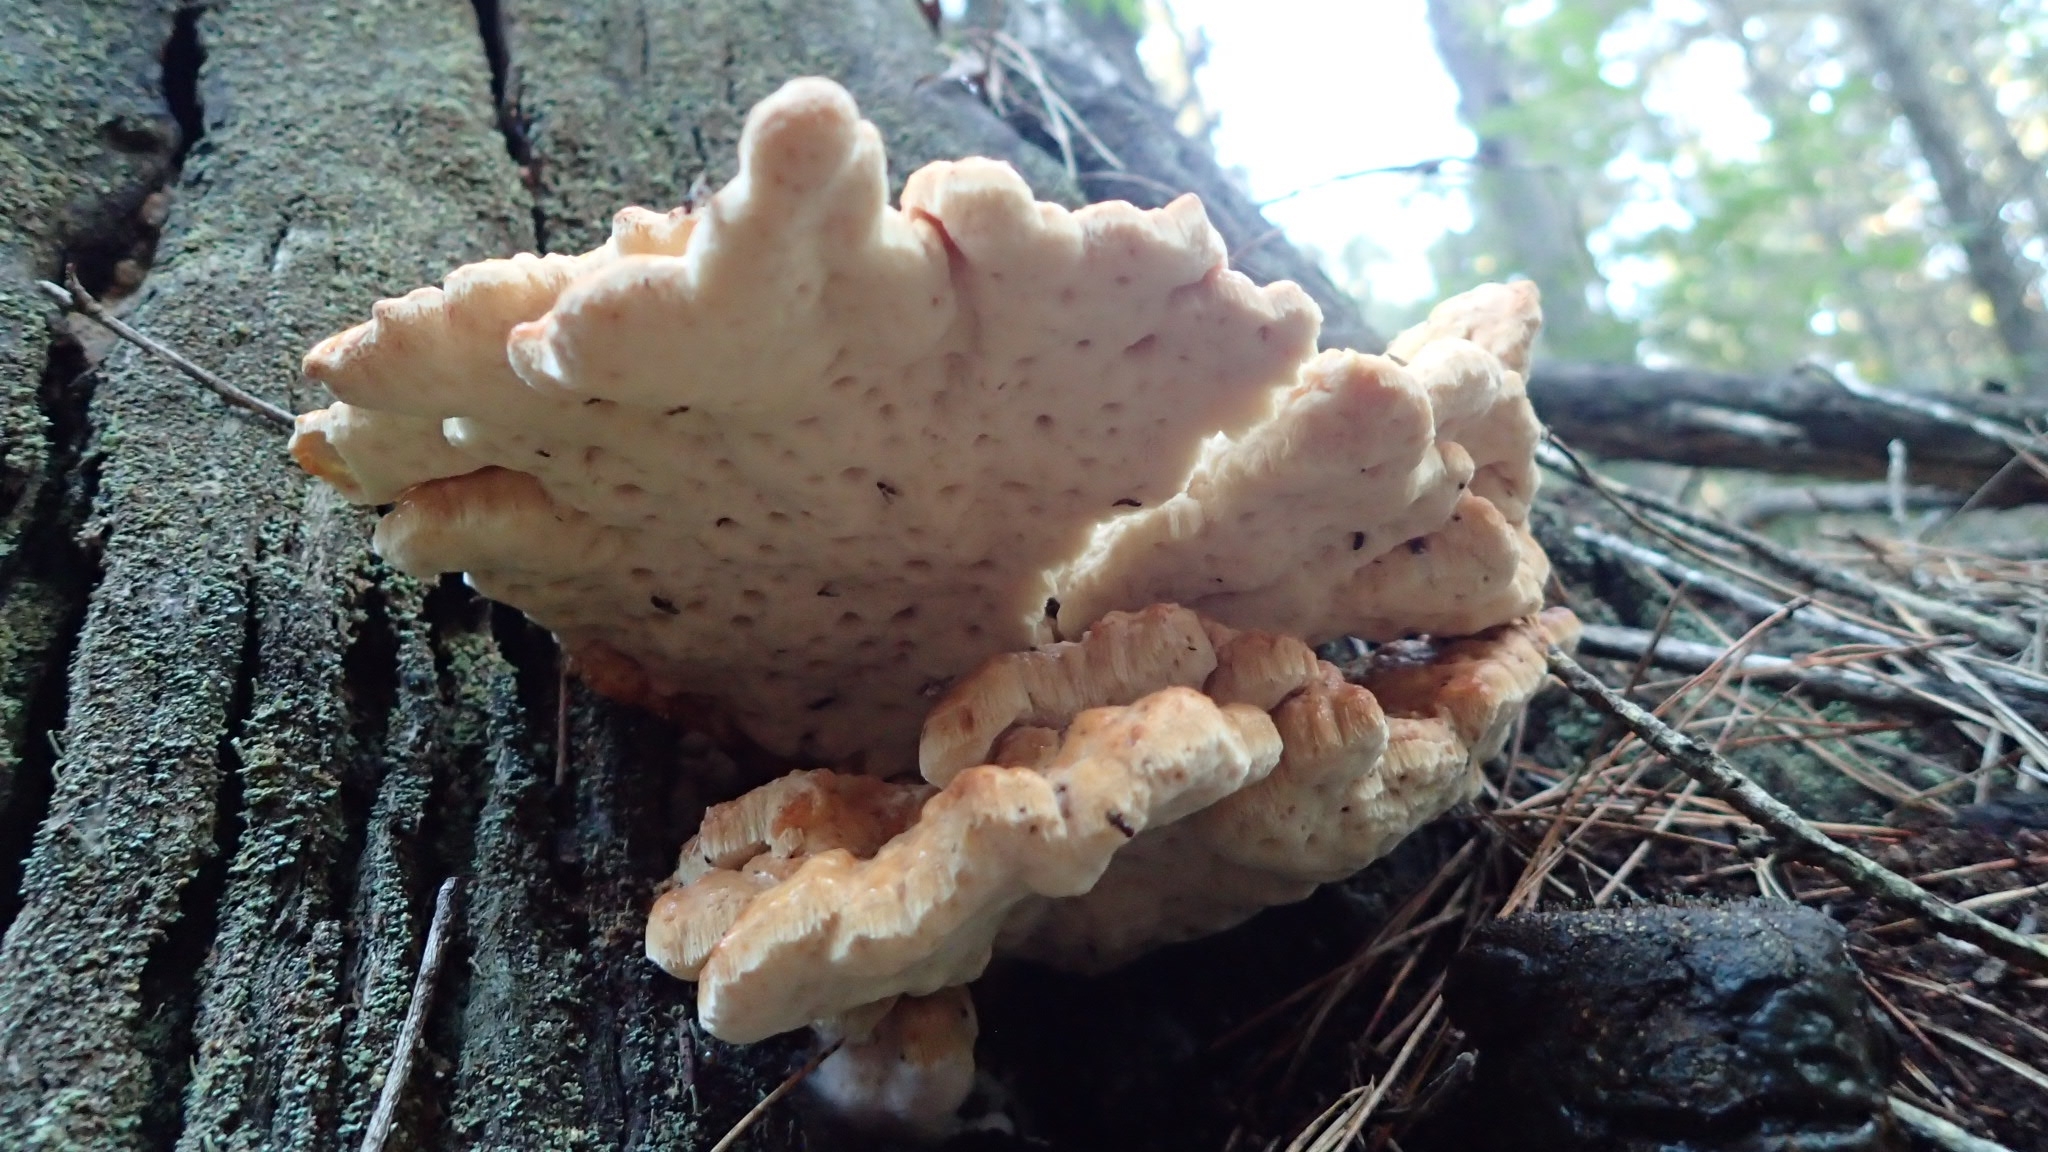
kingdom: Fungi
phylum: Basidiomycota
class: Agaricomycetes
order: Polyporales
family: Laetiporaceae
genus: Laetiporus
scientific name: Laetiporus sulphureus
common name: Chicken of the woods
